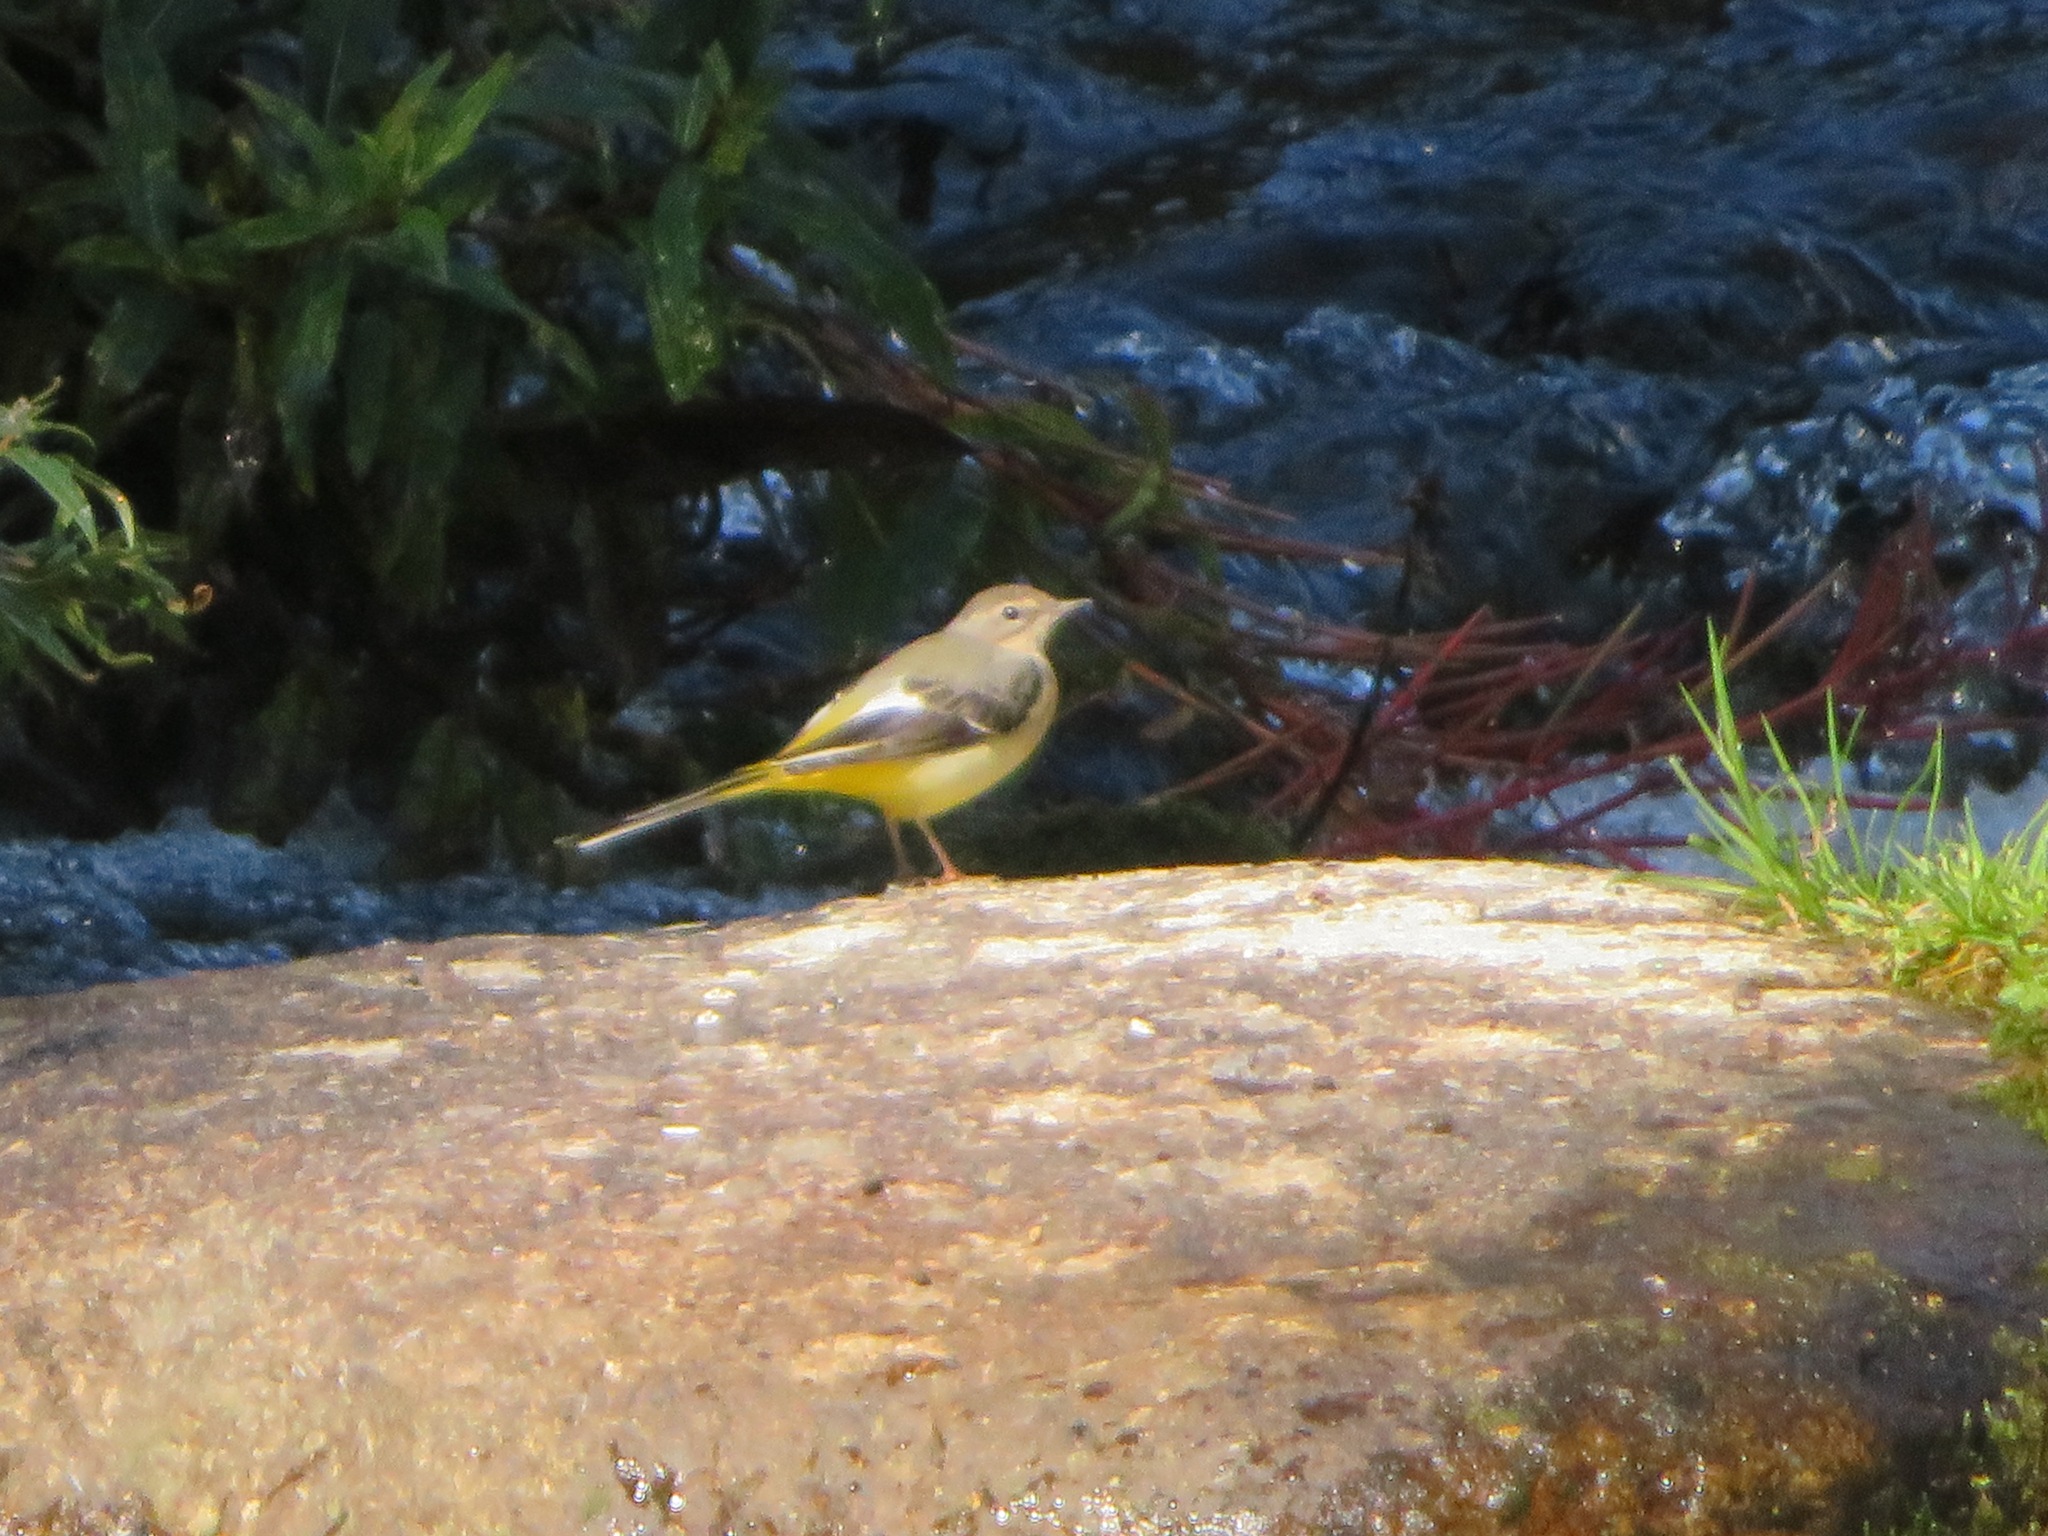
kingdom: Animalia
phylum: Chordata
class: Aves
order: Passeriformes
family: Motacillidae
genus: Motacilla
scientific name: Motacilla cinerea
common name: Grey wagtail
